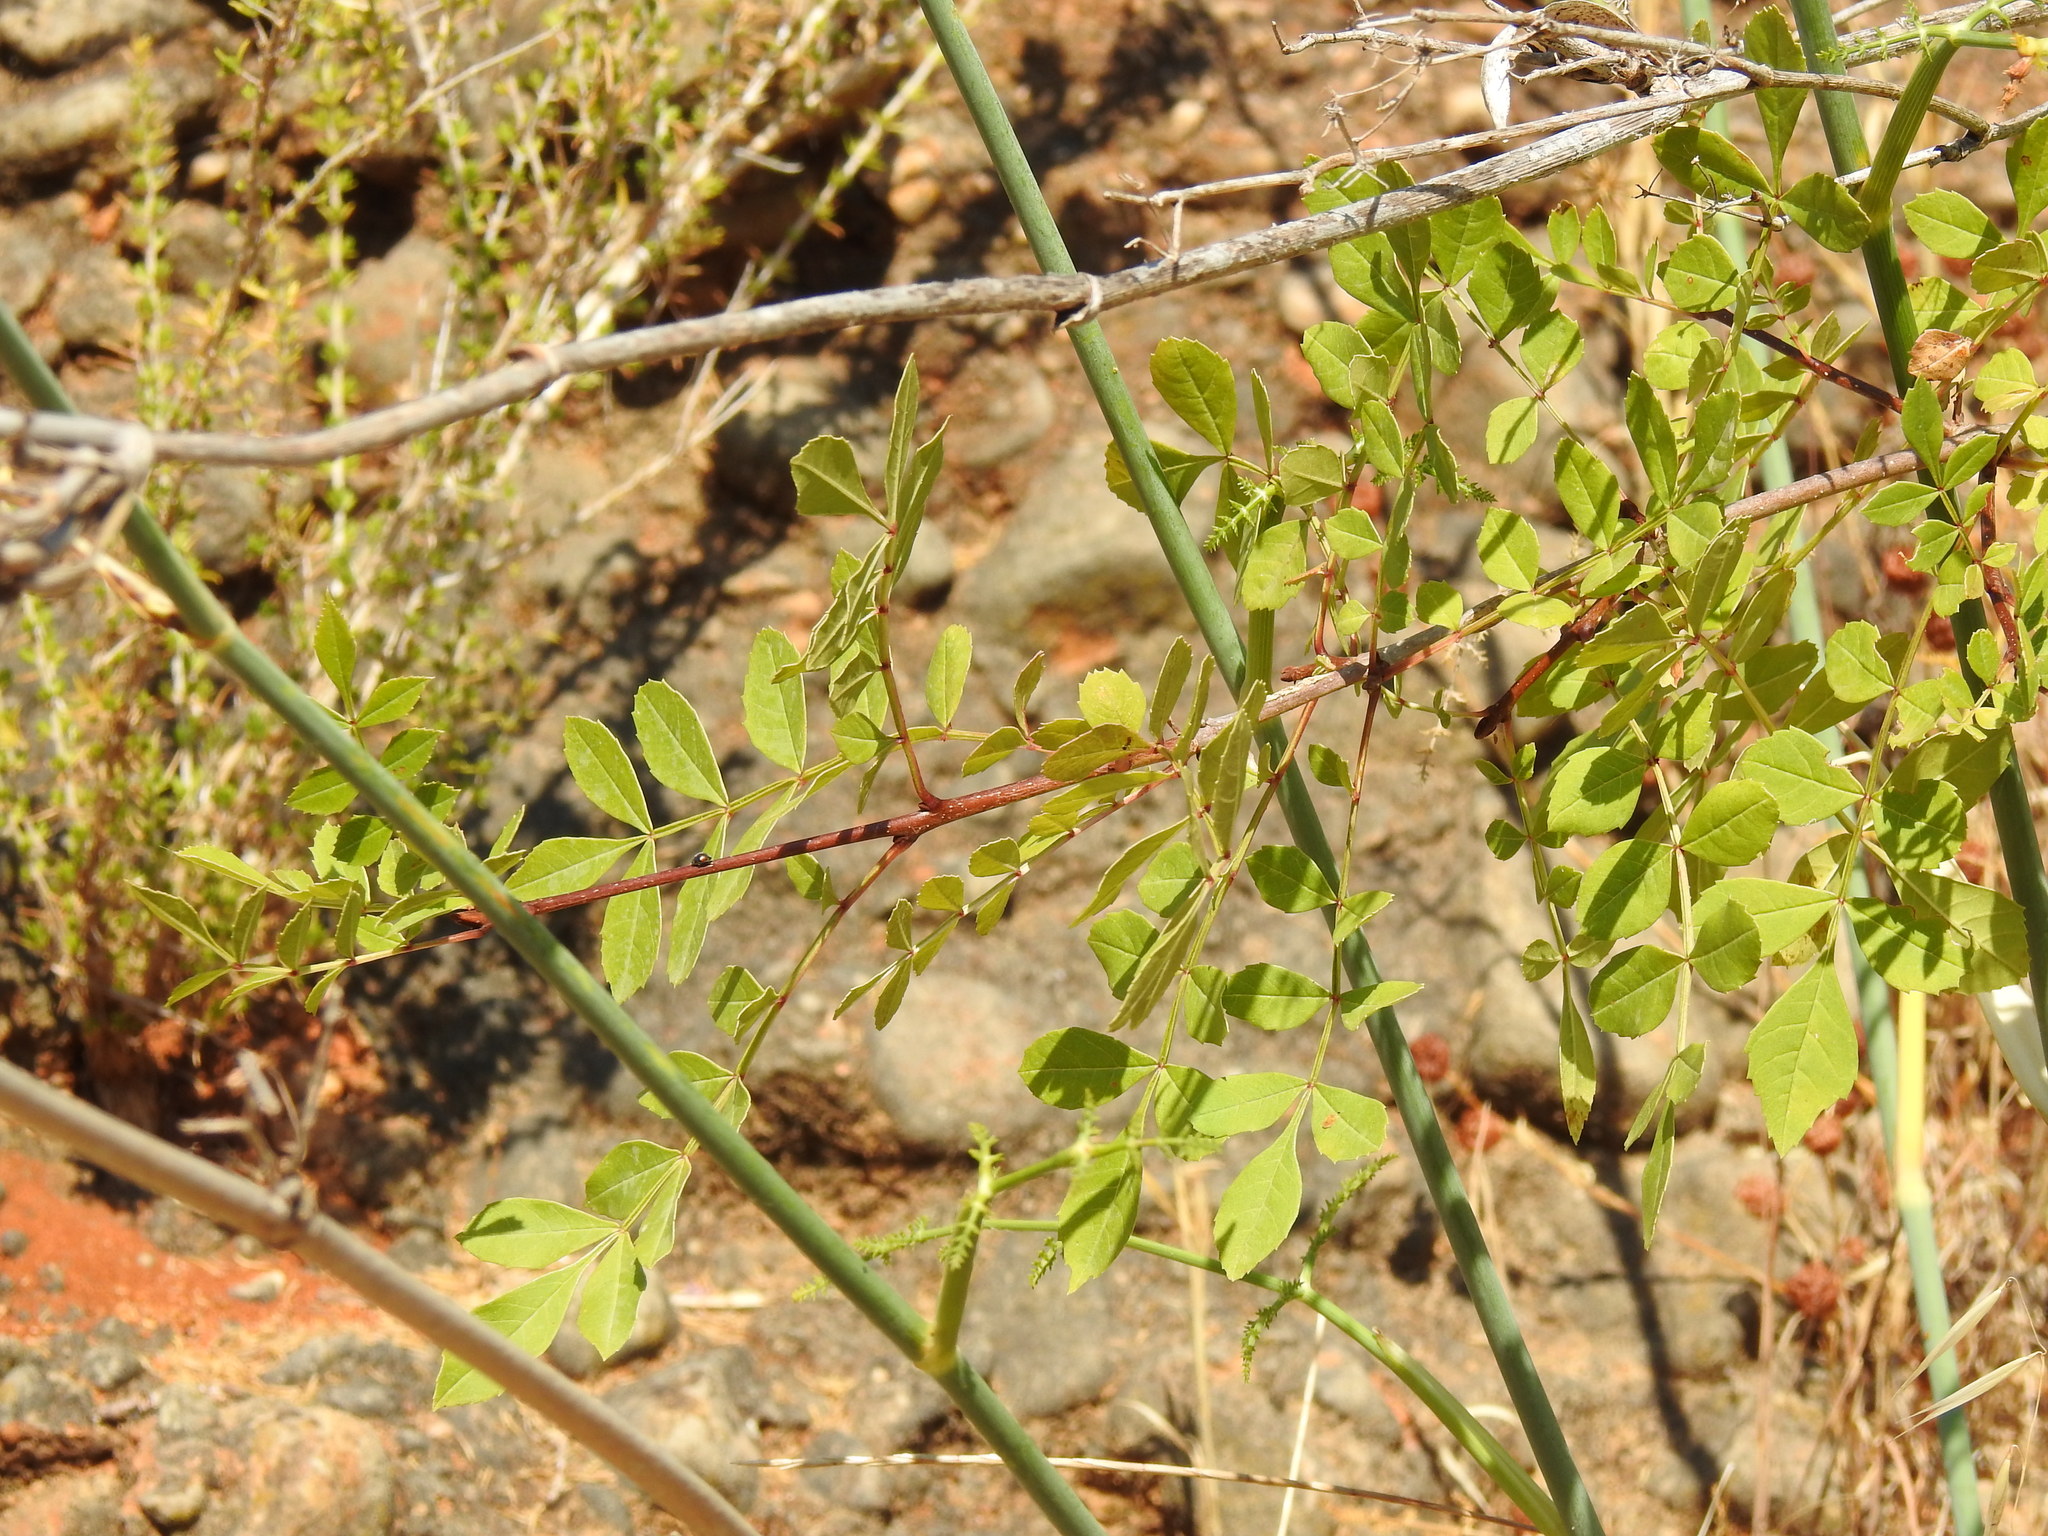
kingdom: Plantae
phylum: Tracheophyta
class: Magnoliopsida
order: Lamiales
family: Oleaceae
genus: Fraxinus
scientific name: Fraxinus angustifolia
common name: Narrow-leafed ash
